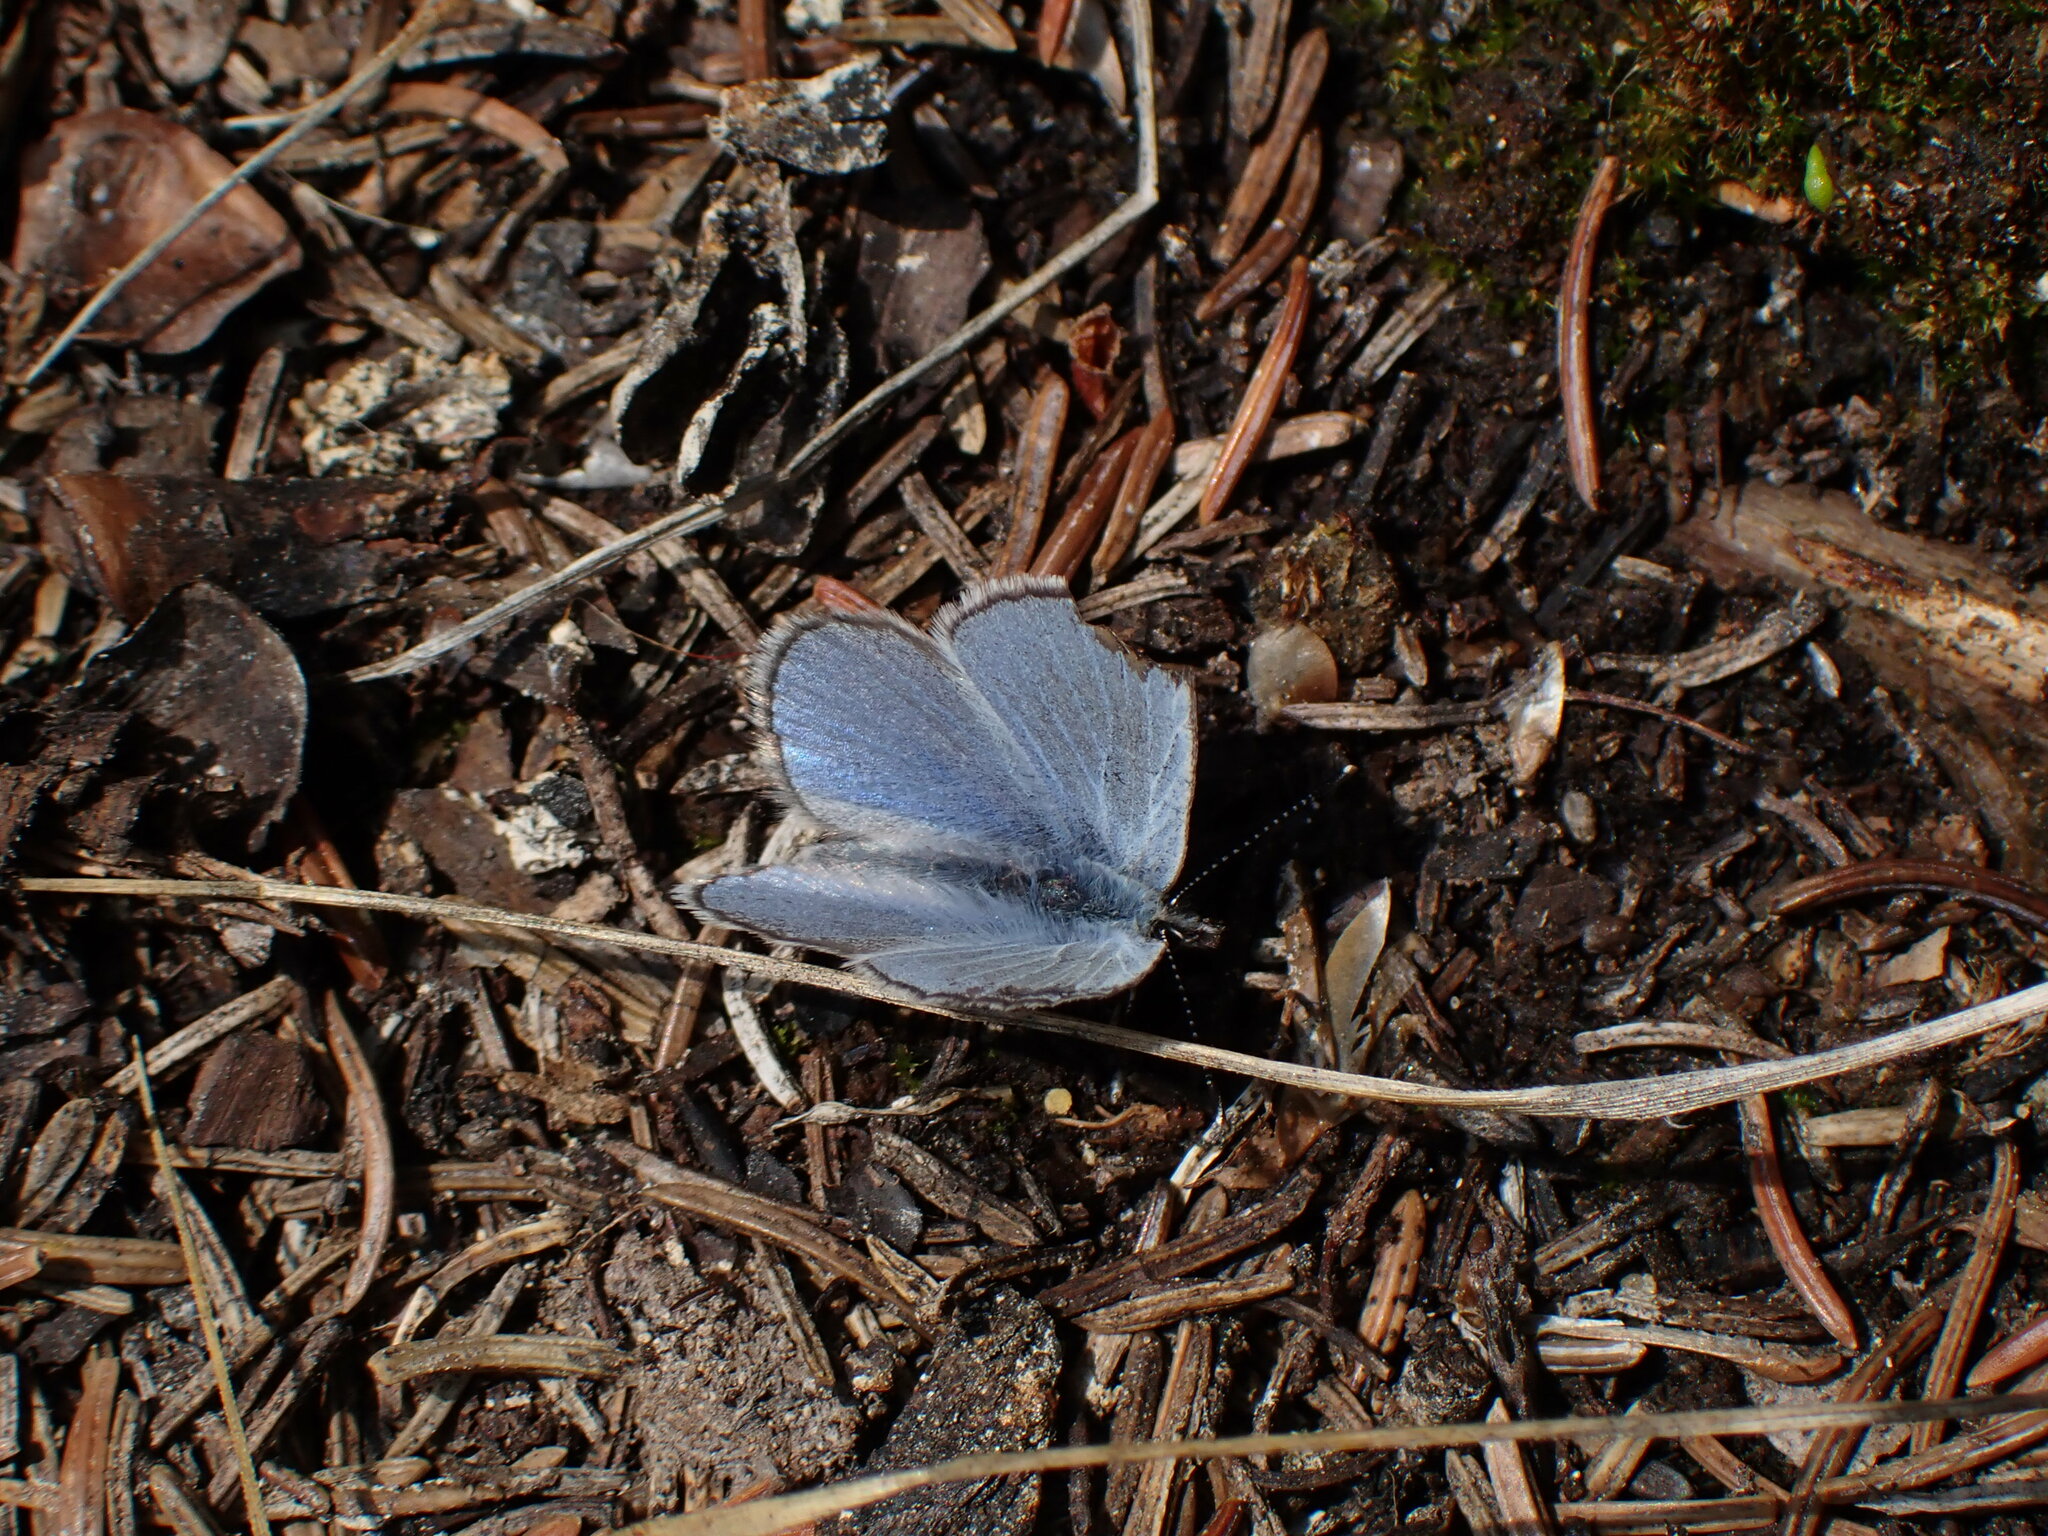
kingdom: Animalia
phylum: Arthropoda
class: Insecta
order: Lepidoptera
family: Lycaenidae
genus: Glaucopsyche
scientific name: Glaucopsyche lygdamus
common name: Silvery blue
